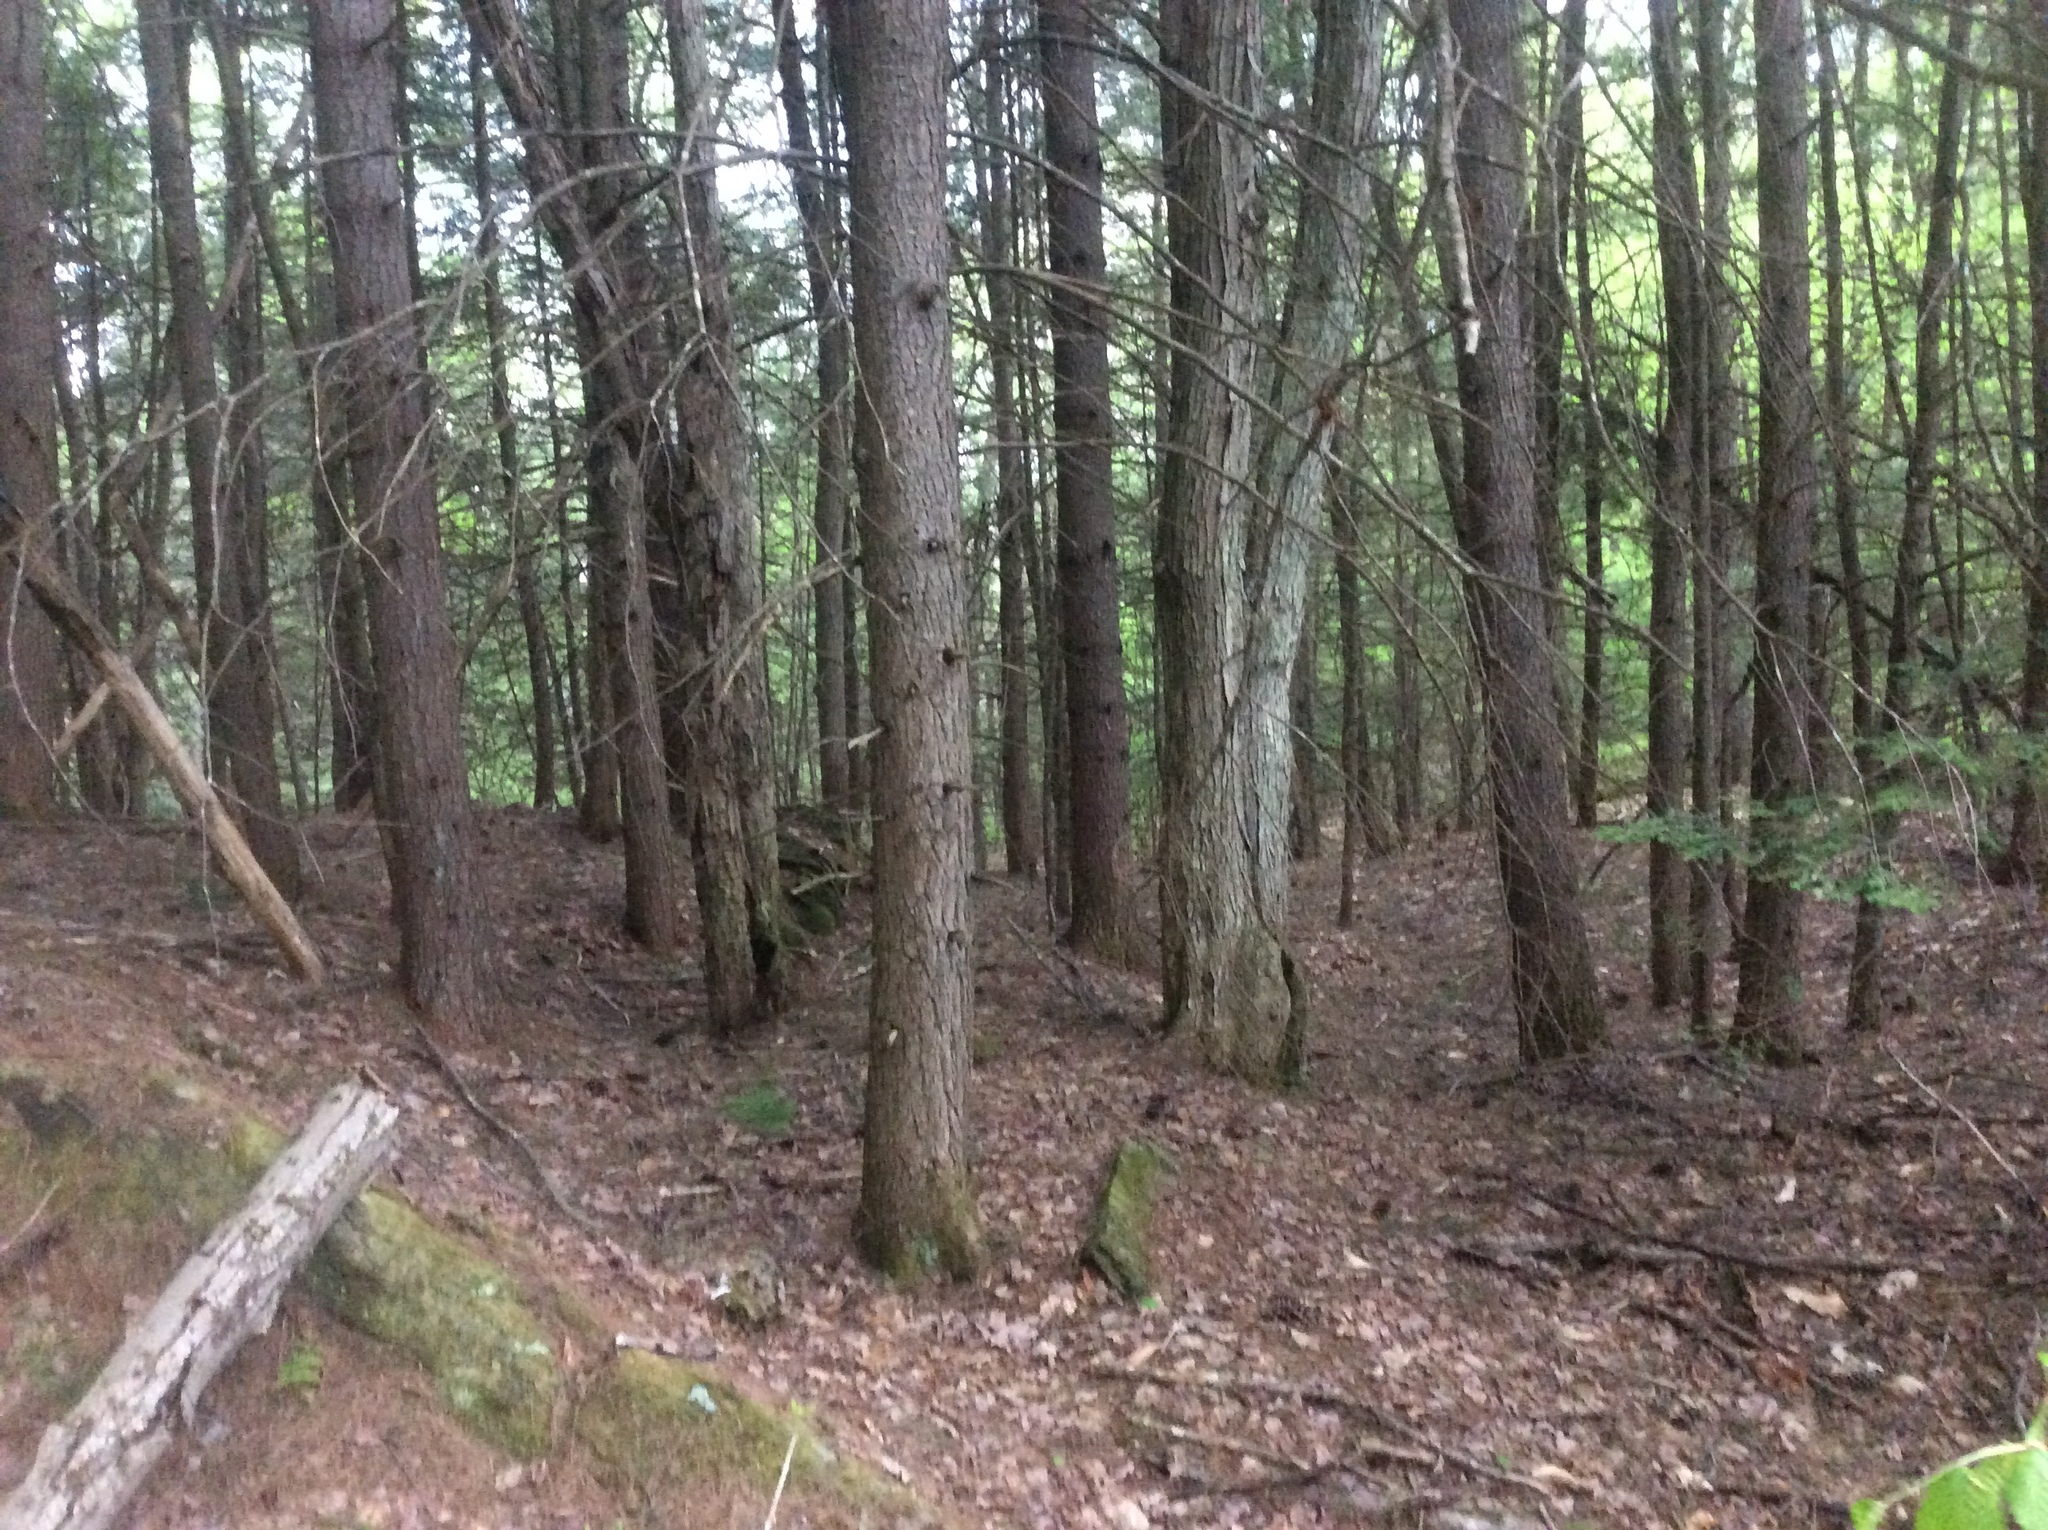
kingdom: Plantae
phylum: Tracheophyta
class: Pinopsida
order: Pinales
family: Pinaceae
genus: Tsuga
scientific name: Tsuga canadensis
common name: Eastern hemlock
